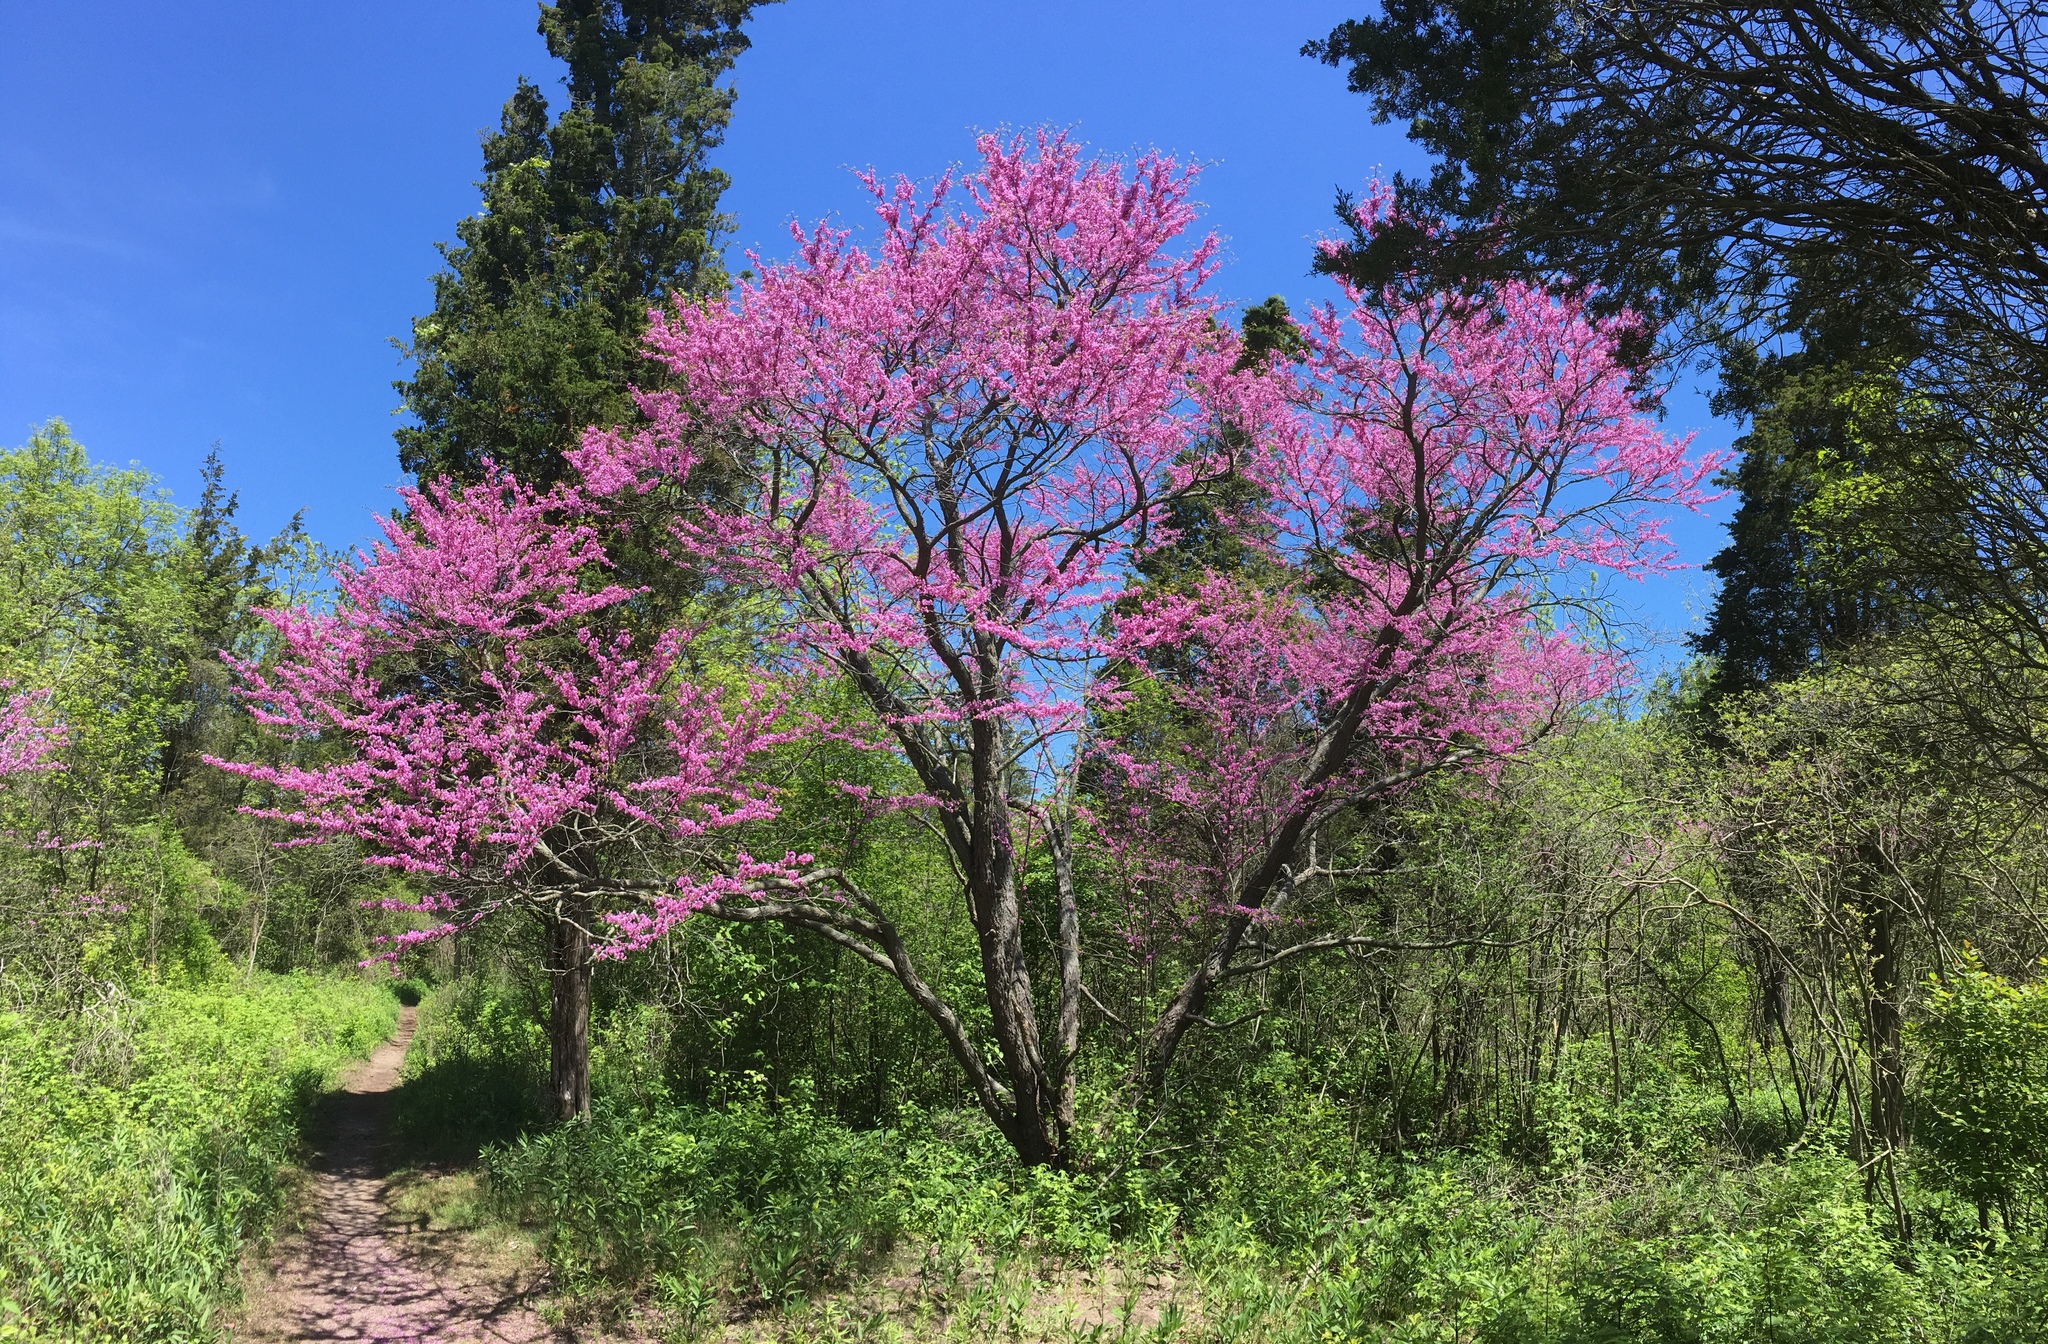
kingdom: Plantae
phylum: Tracheophyta
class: Magnoliopsida
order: Fabales
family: Fabaceae
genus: Cercis
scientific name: Cercis canadensis
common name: Eastern redbud
